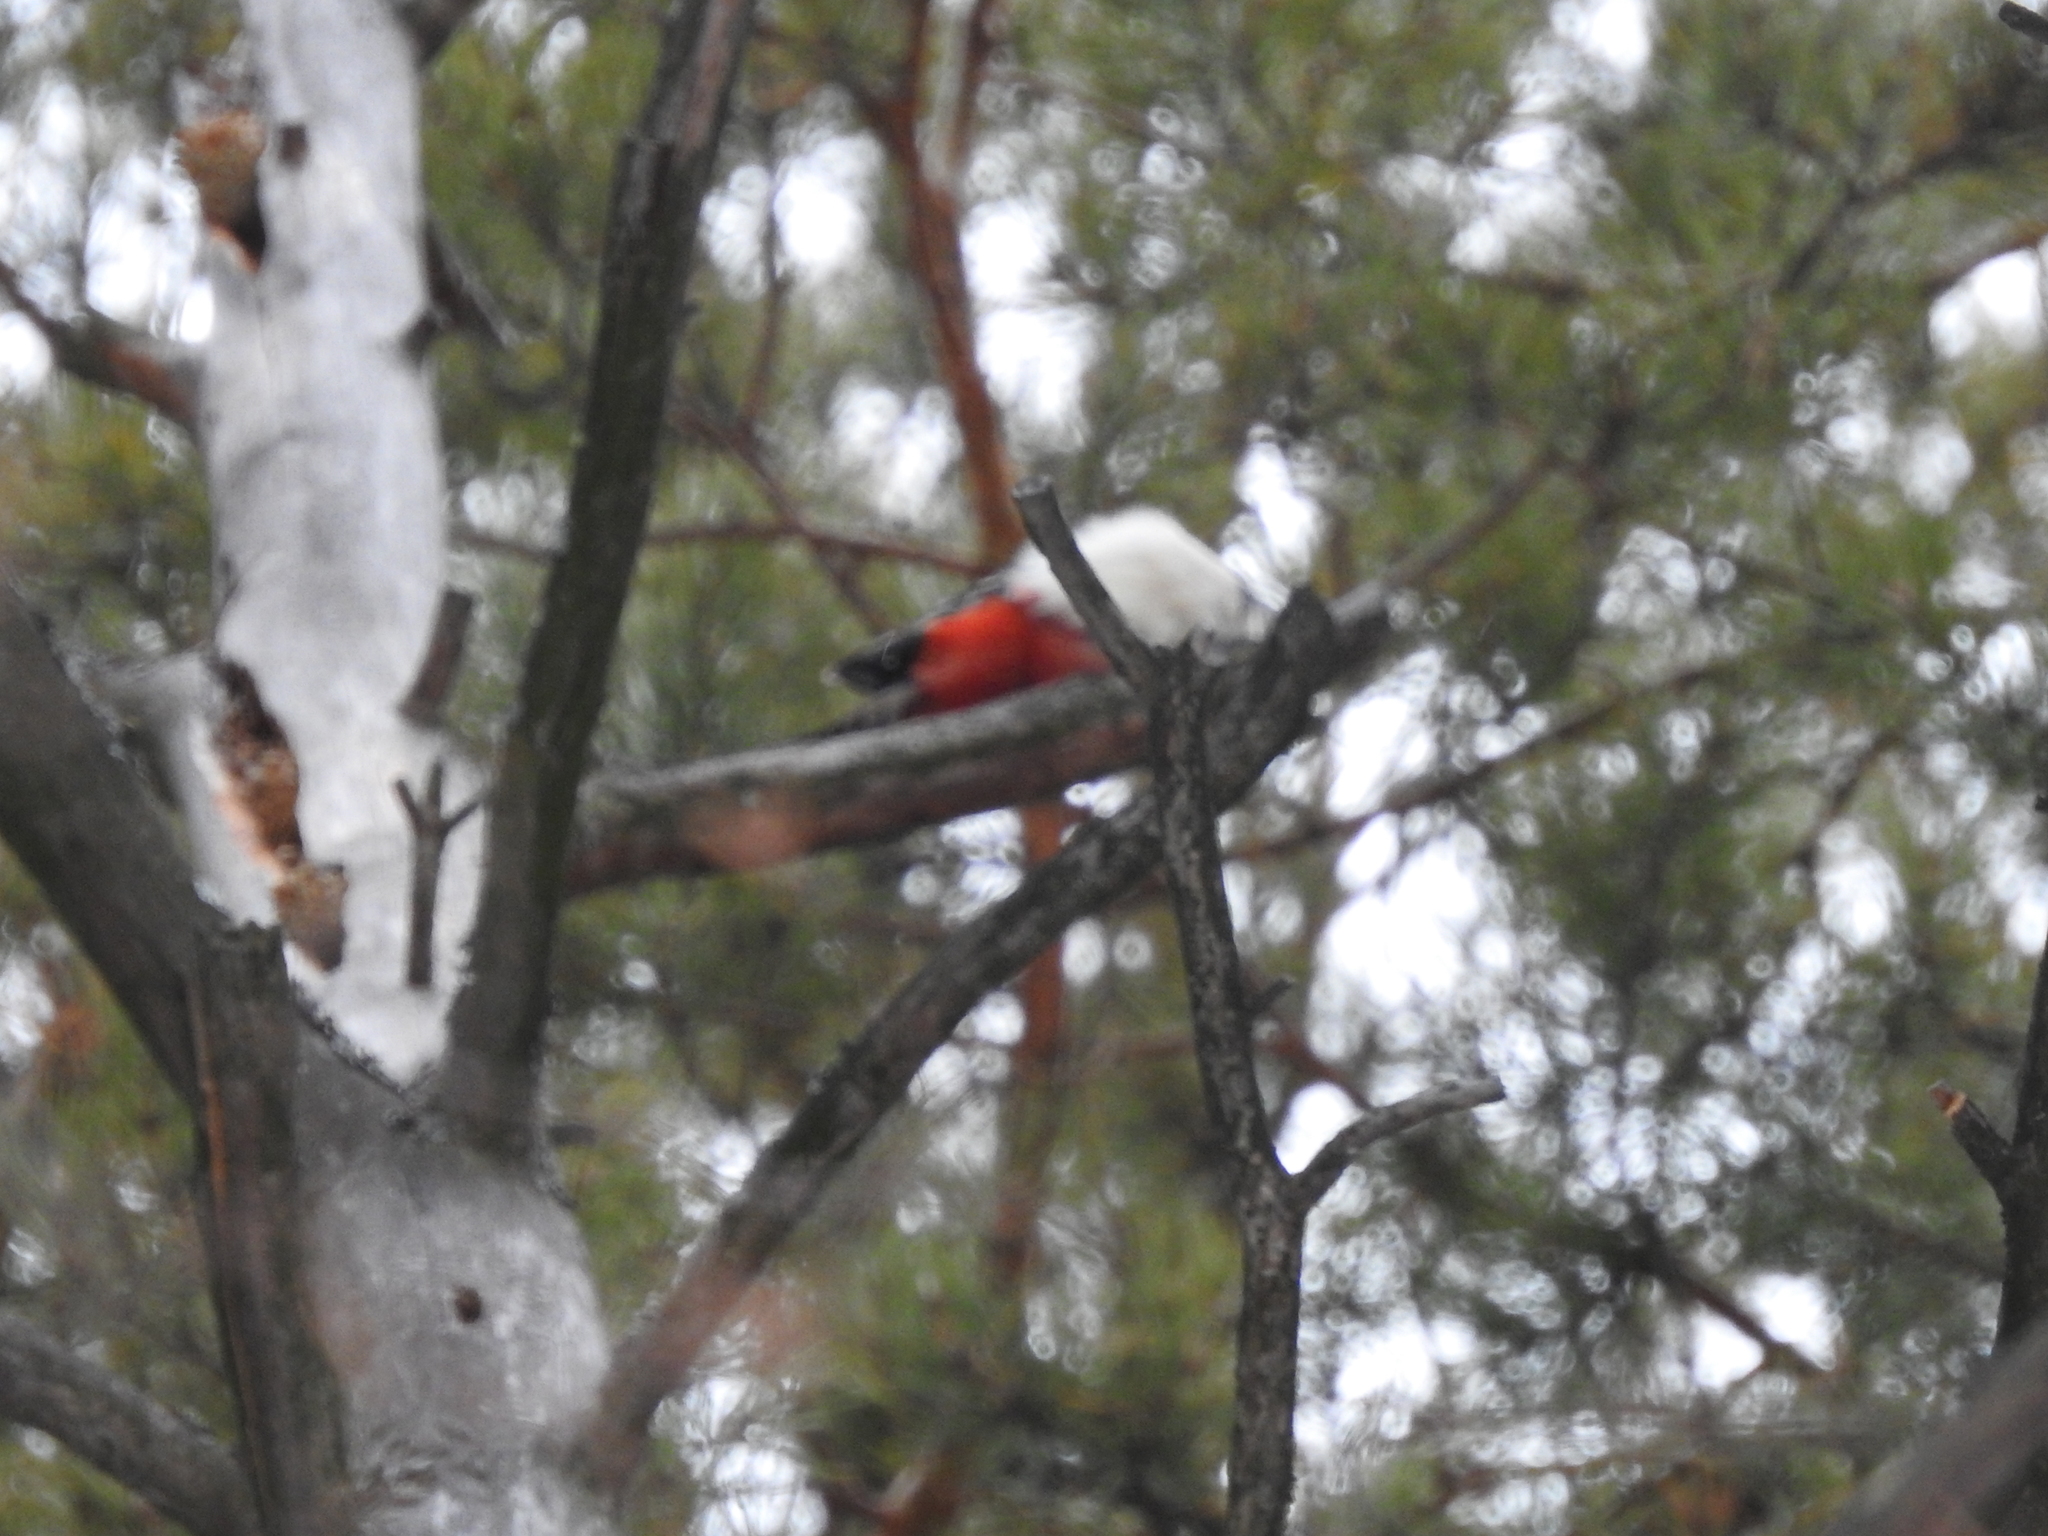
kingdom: Animalia
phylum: Chordata
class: Aves
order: Piciformes
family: Picidae
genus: Dendrocopos
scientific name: Dendrocopos major
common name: Great spotted woodpecker
